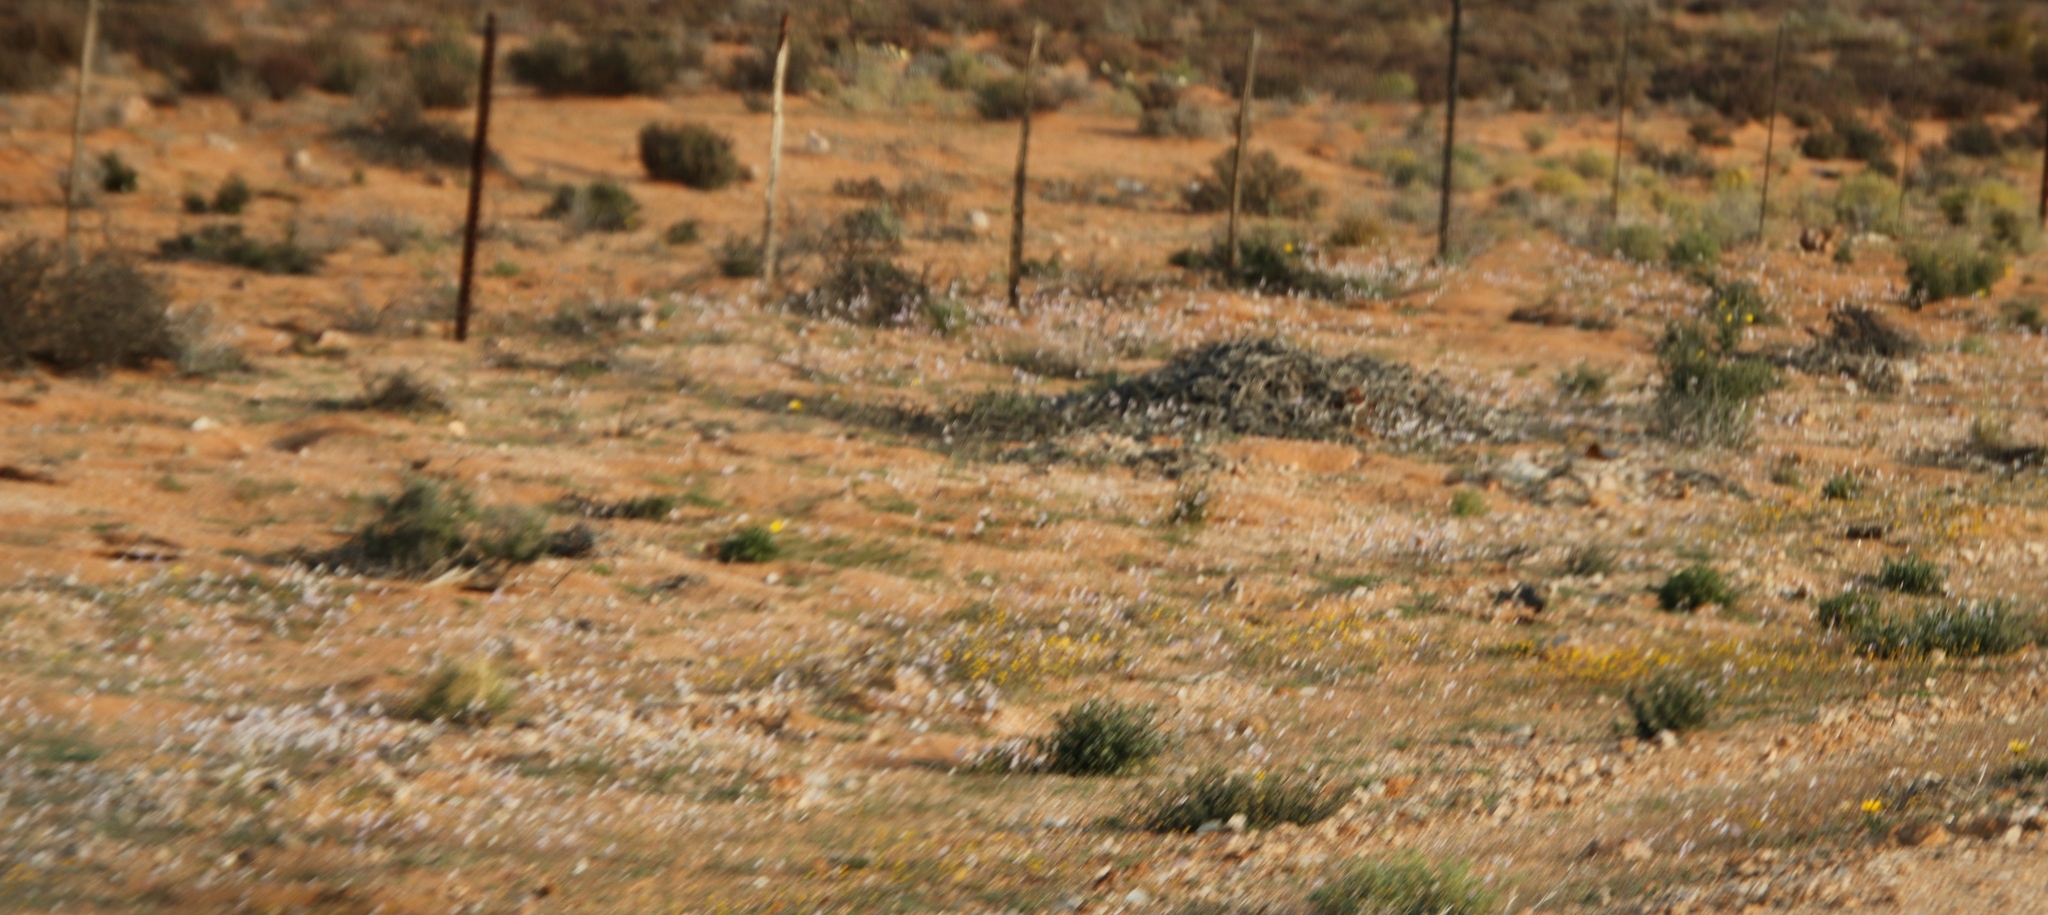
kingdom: Plantae
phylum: Tracheophyta
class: Magnoliopsida
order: Brassicales
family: Brassicaceae
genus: Heliophila
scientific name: Heliophila deserticola
